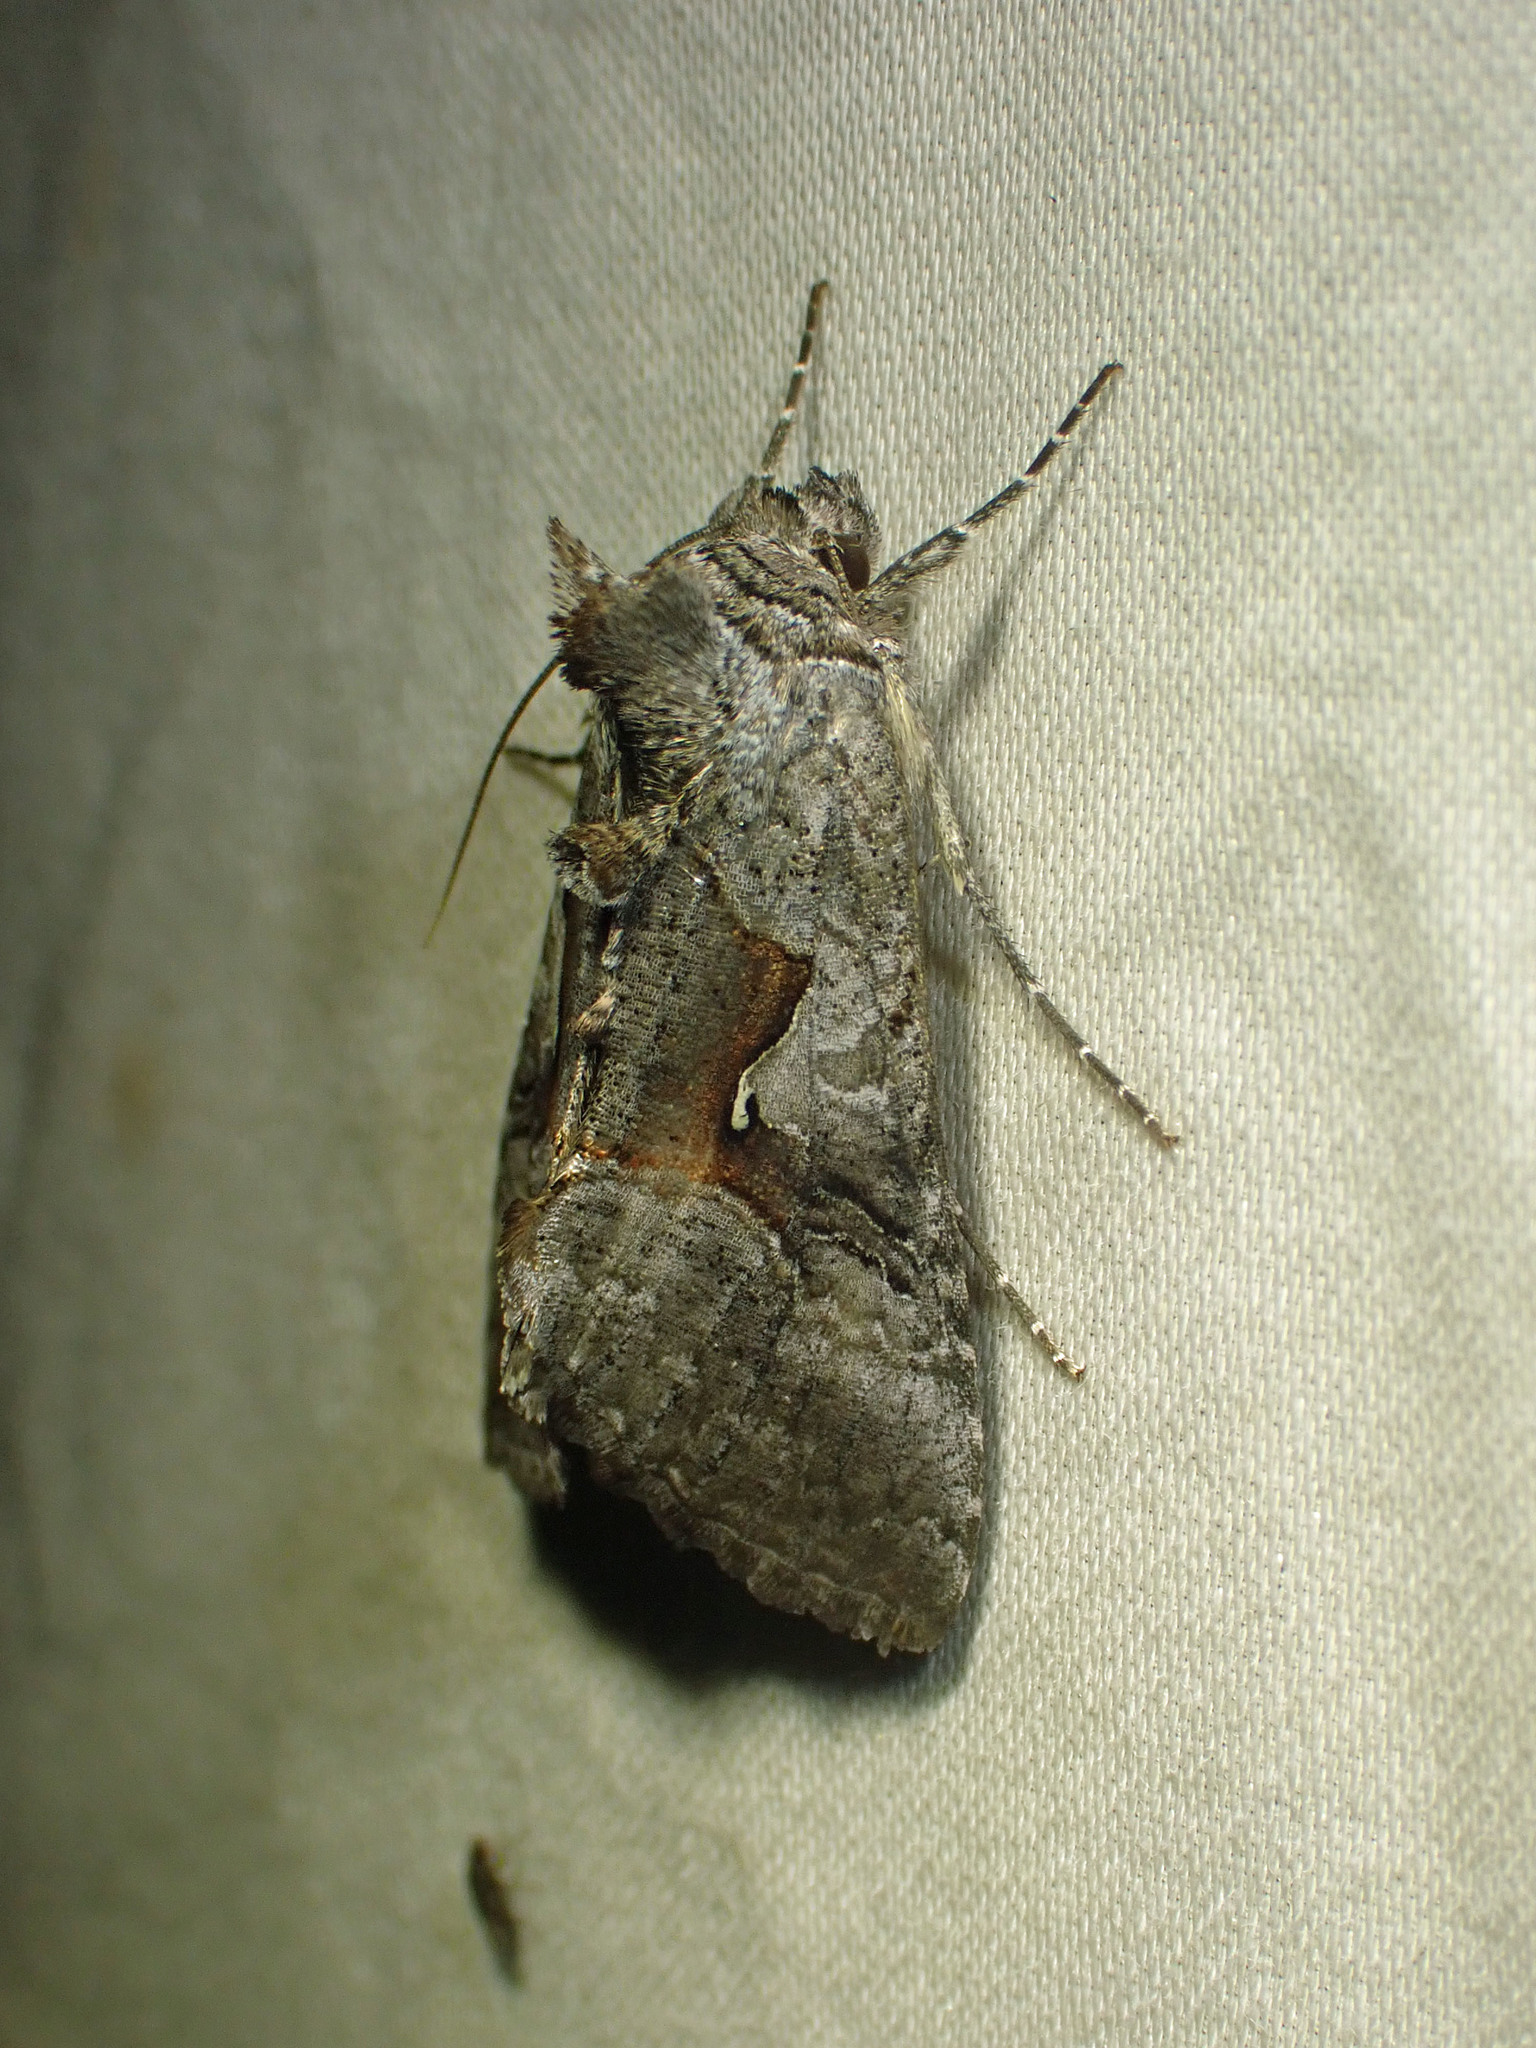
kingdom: Animalia
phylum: Arthropoda
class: Insecta
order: Lepidoptera
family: Noctuidae
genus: Syngrapha
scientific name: Syngrapha epigaea
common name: Epigaea looper moth
